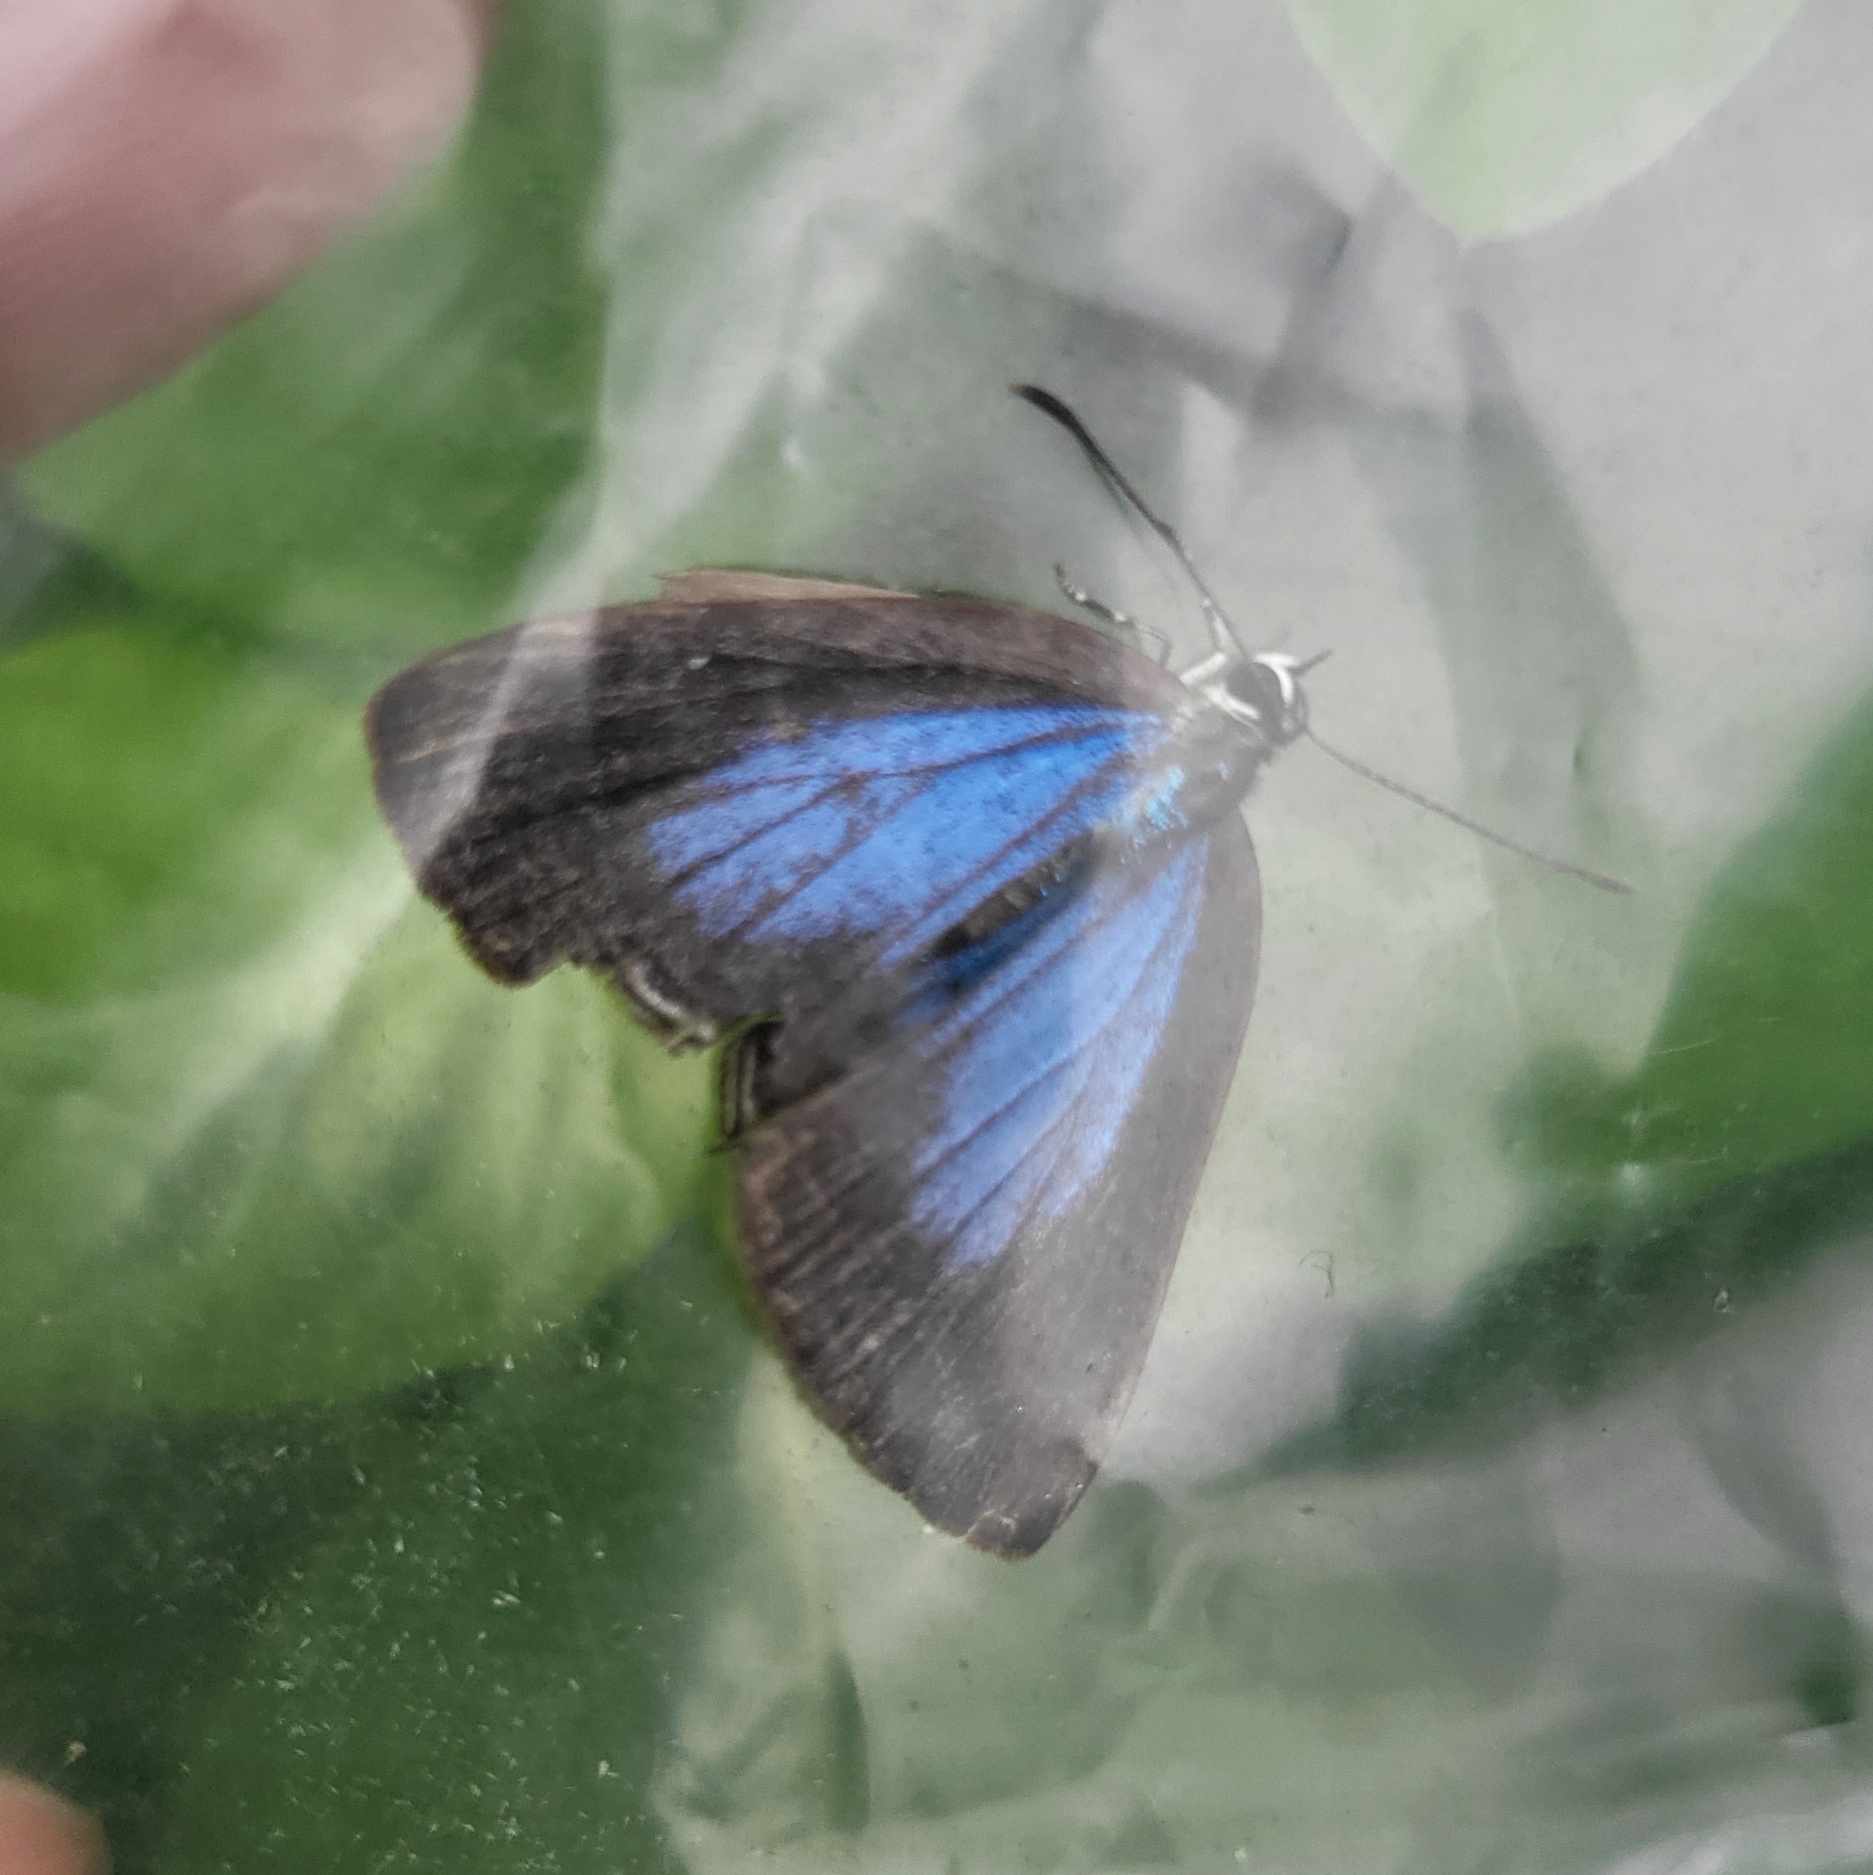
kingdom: Animalia
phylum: Arthropoda
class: Insecta
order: Lepidoptera
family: Lycaenidae
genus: Jamides
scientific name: Jamides bochus
